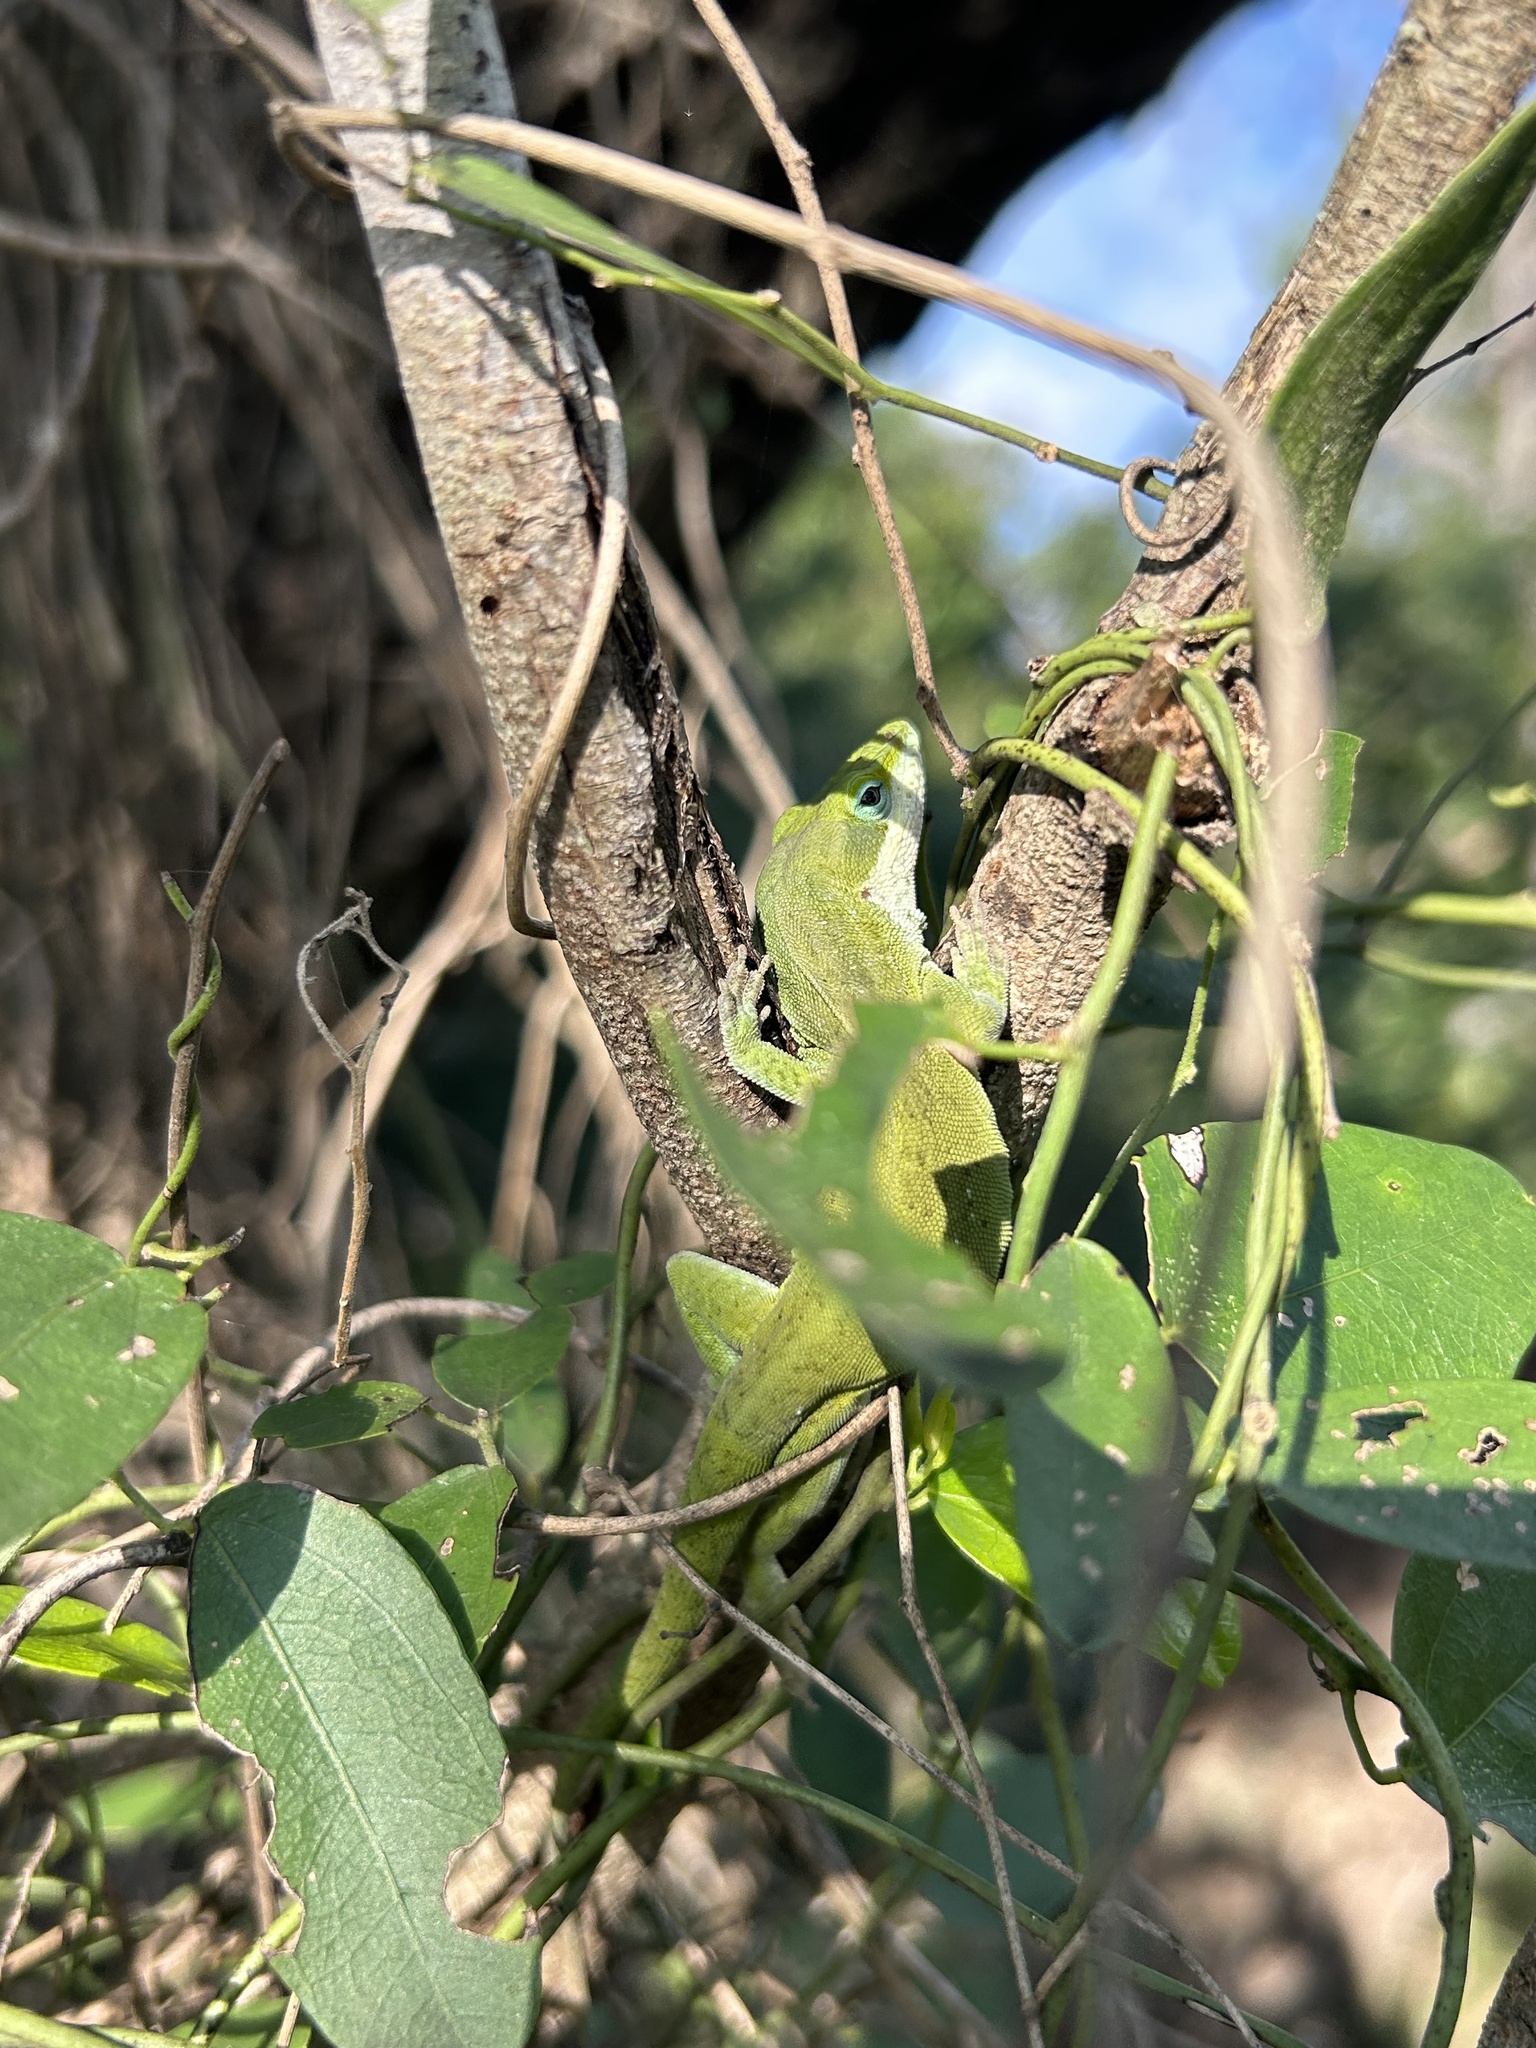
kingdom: Animalia
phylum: Chordata
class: Squamata
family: Dactyloidae
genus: Anolis
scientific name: Anolis carolinensis
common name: Green anole
